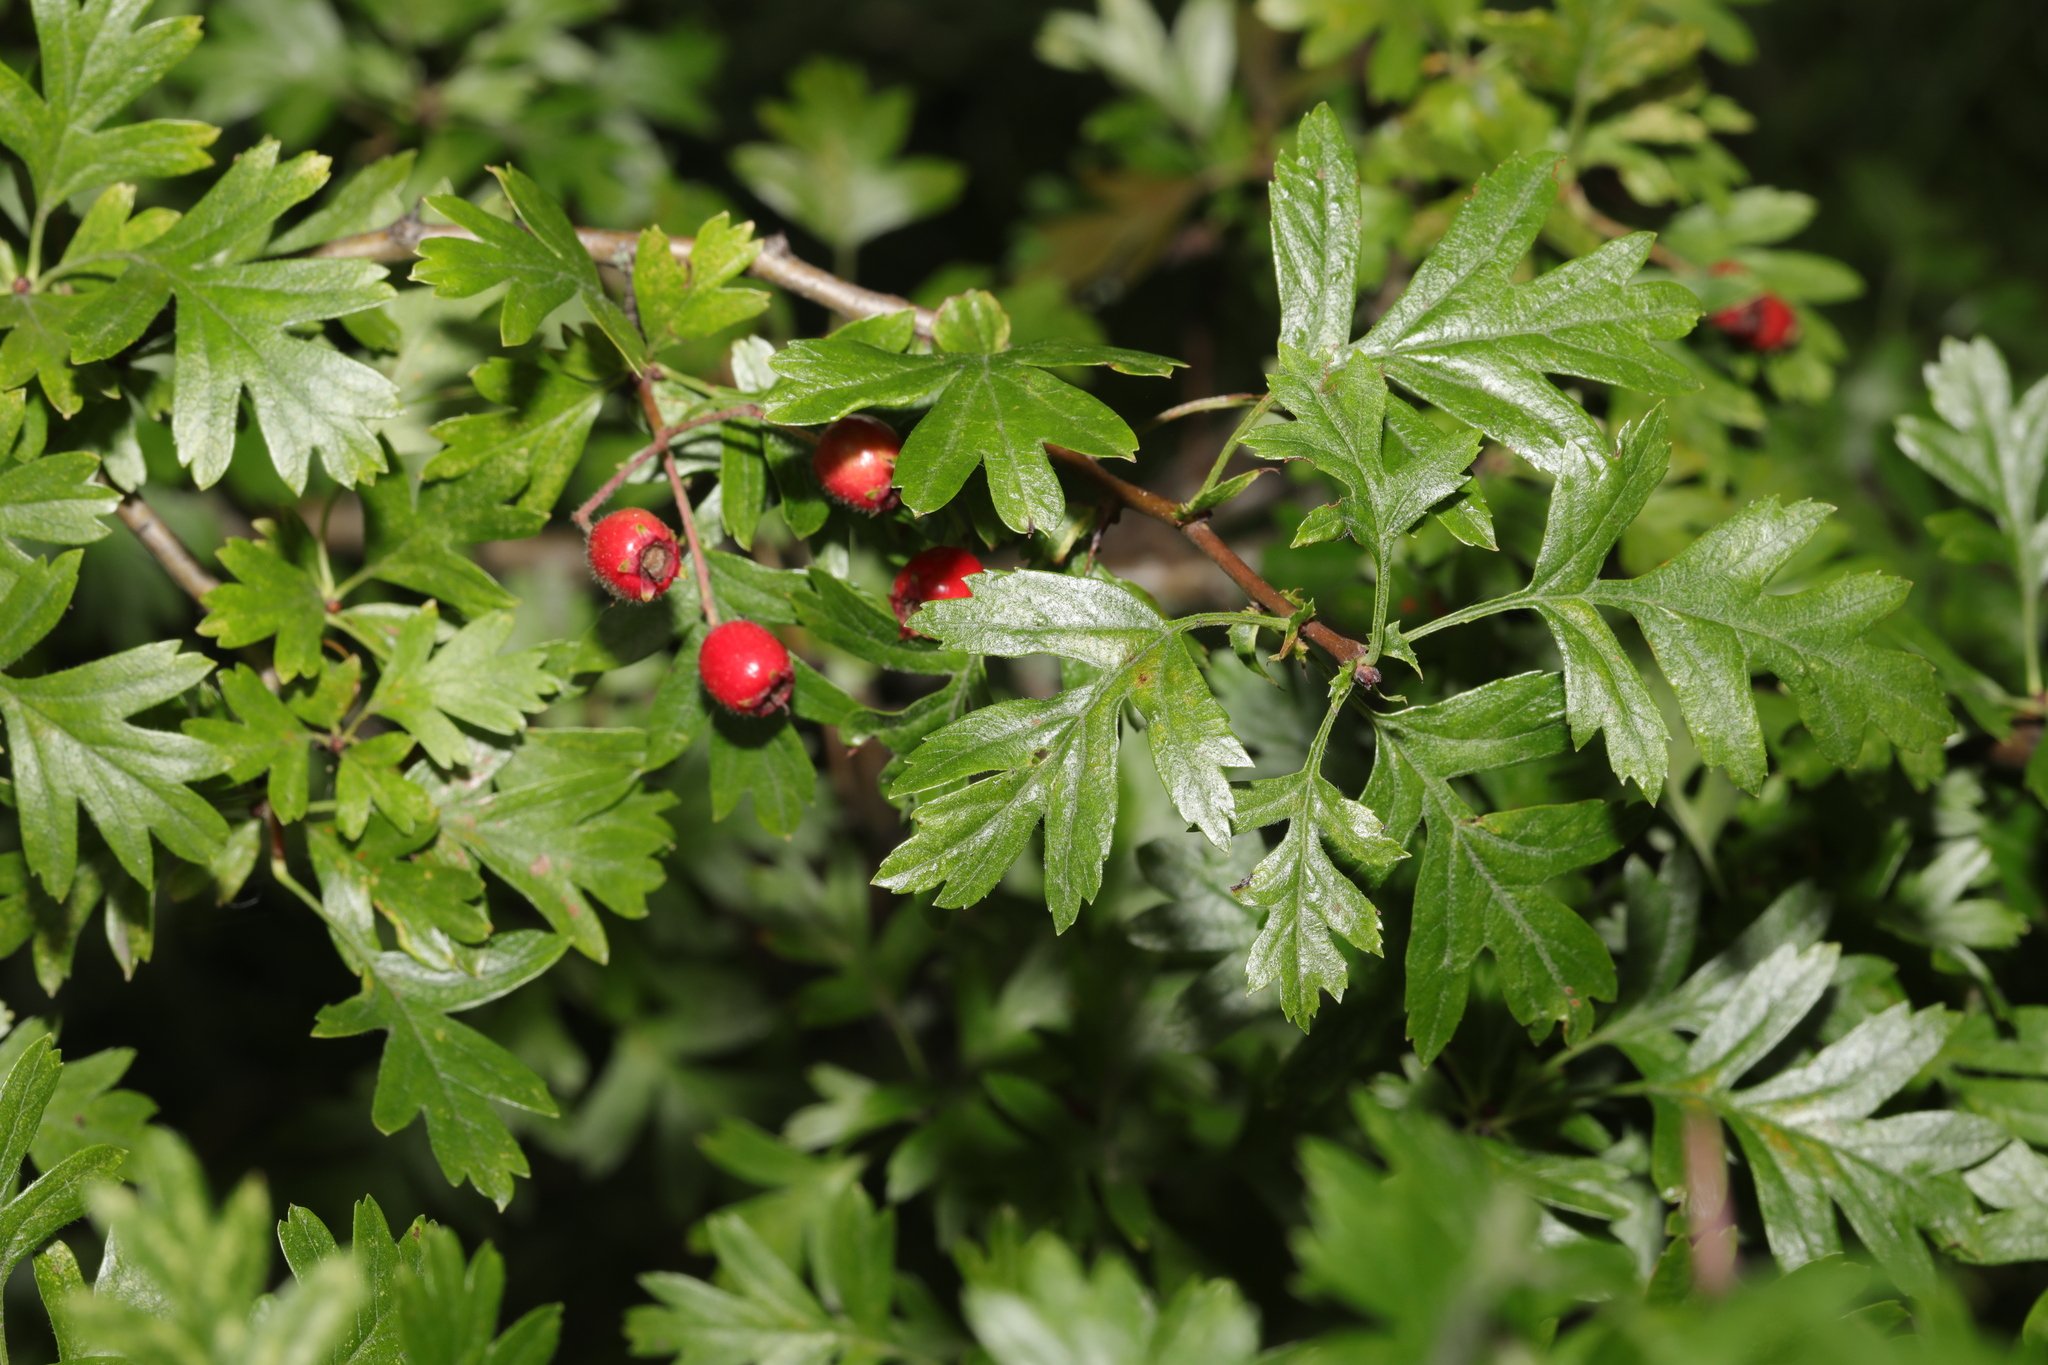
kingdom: Plantae
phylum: Tracheophyta
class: Magnoliopsida
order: Rosales
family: Rosaceae
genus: Crataegus
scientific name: Crataegus monogyna
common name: Hawthorn
